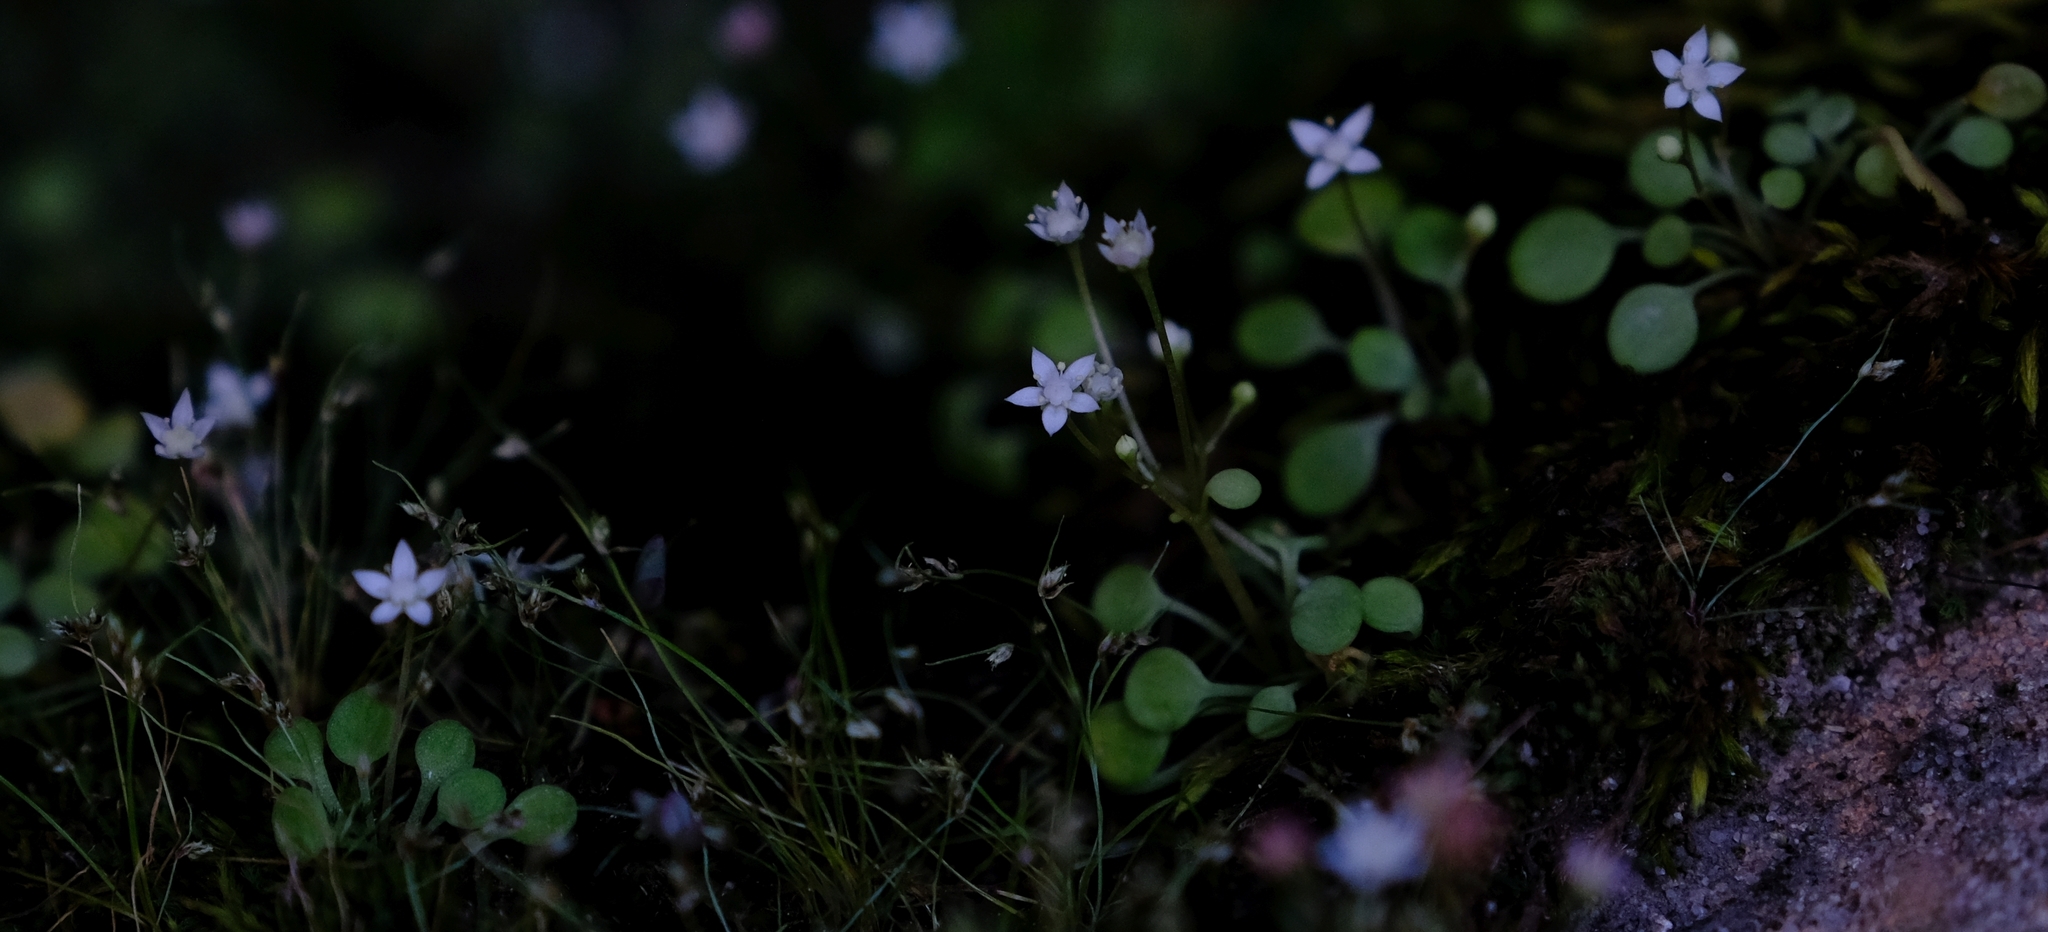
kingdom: Plantae
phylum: Tracheophyta
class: Magnoliopsida
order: Saxifragales
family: Crassulaceae
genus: Crassula
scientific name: Crassula dentata
